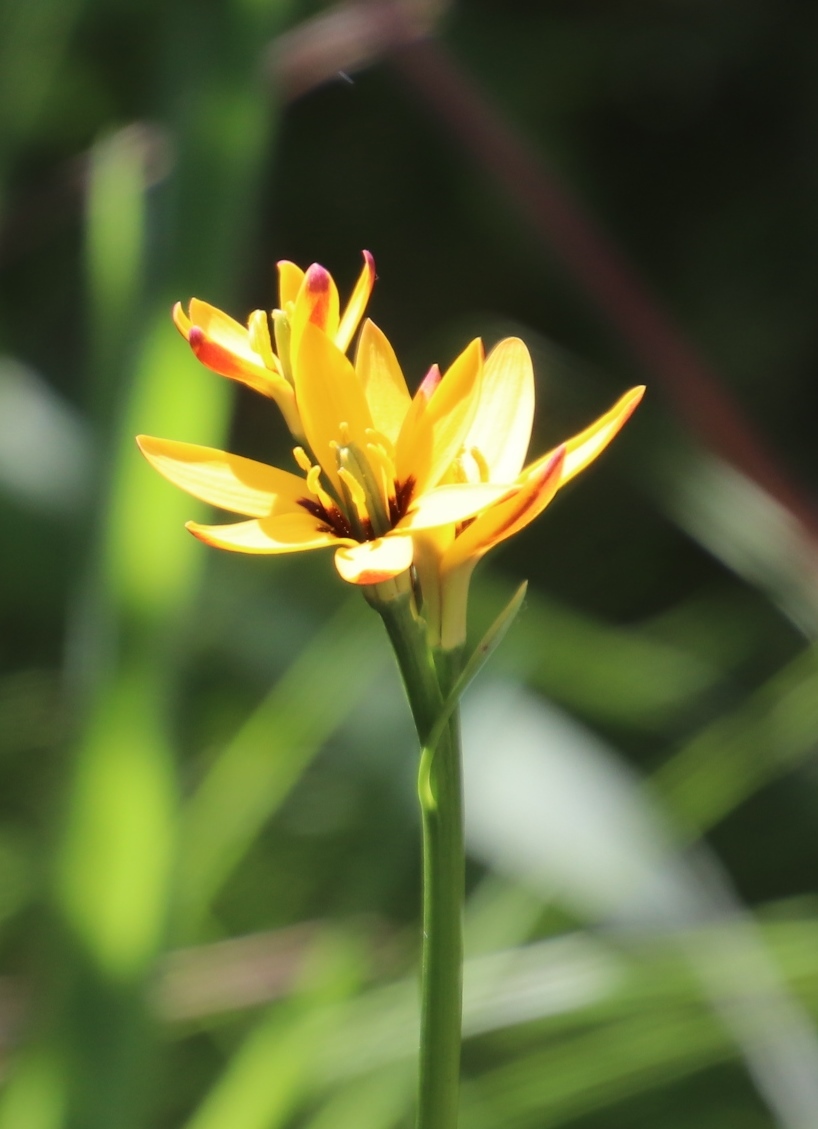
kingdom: Plantae
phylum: Tracheophyta
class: Liliopsida
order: Liliales
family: Colchicaceae
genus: Baeometra
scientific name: Baeometra uniflora
